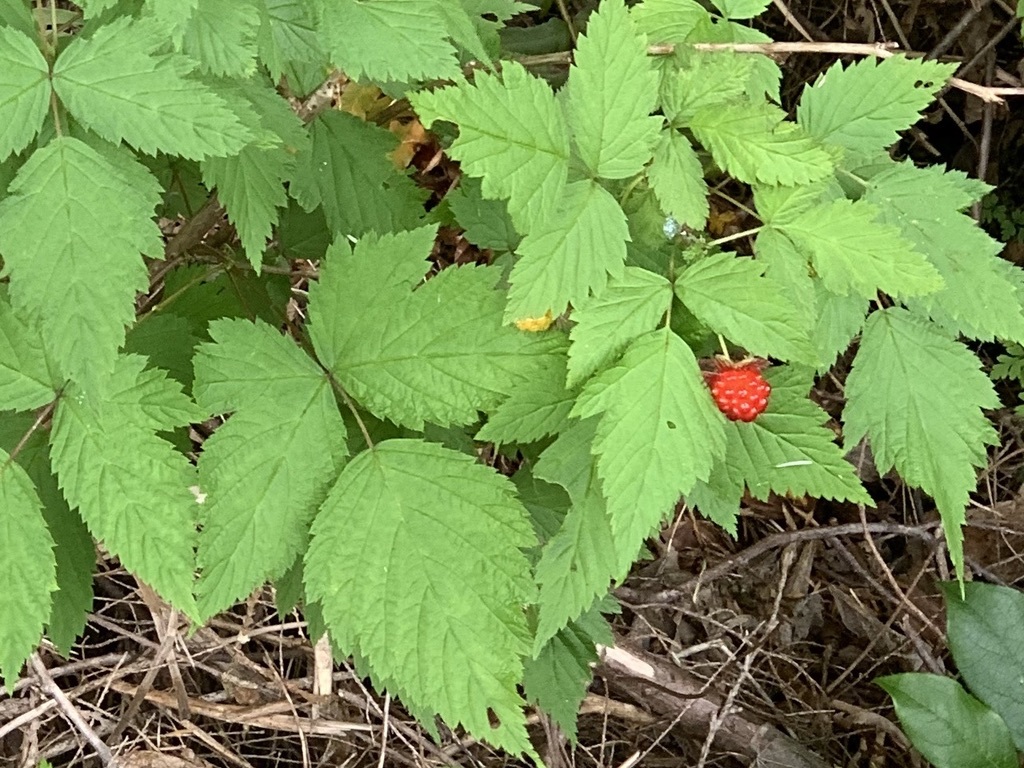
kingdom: Plantae
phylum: Tracheophyta
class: Magnoliopsida
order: Rosales
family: Rosaceae
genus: Rubus
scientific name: Rubus spectabilis
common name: Salmonberry
